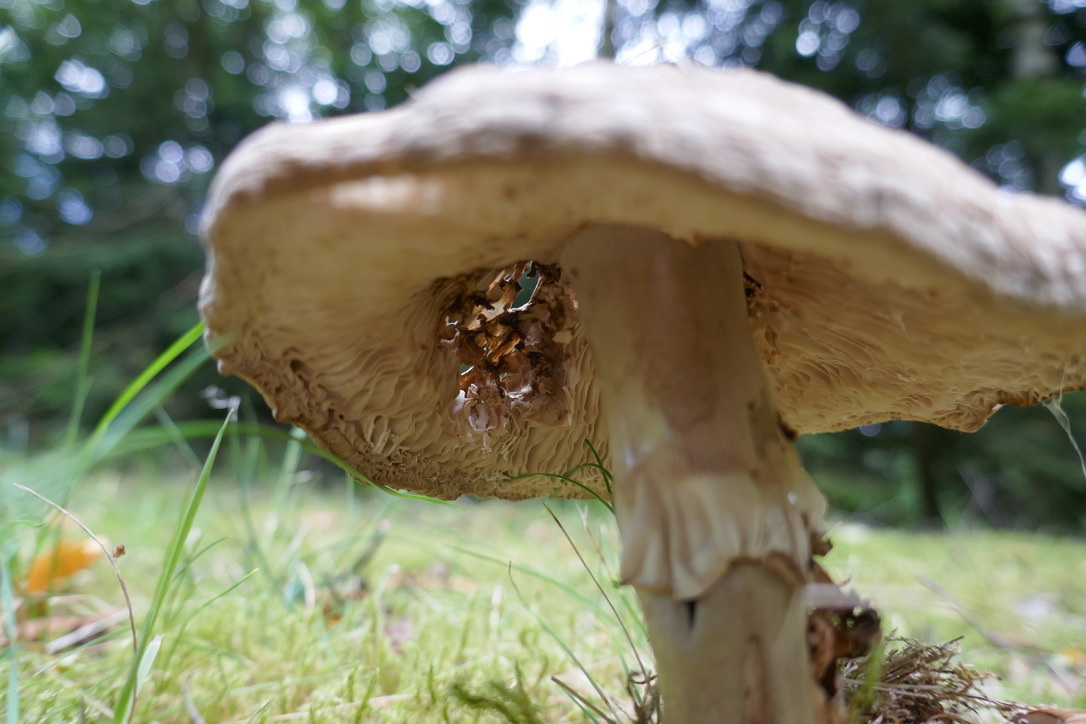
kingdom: Fungi
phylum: Basidiomycota
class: Agaricomycetes
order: Agaricales
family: Amanitaceae
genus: Amanita
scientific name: Amanita
